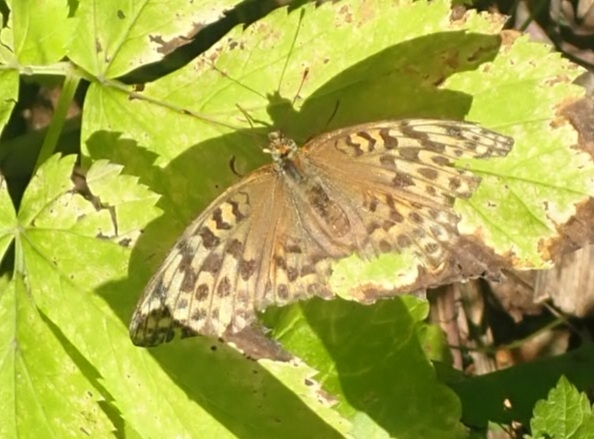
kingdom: Animalia
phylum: Arthropoda
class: Insecta
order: Lepidoptera
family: Nymphalidae
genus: Argynnis
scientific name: Argynnis paphia
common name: Silver-washed fritillary
